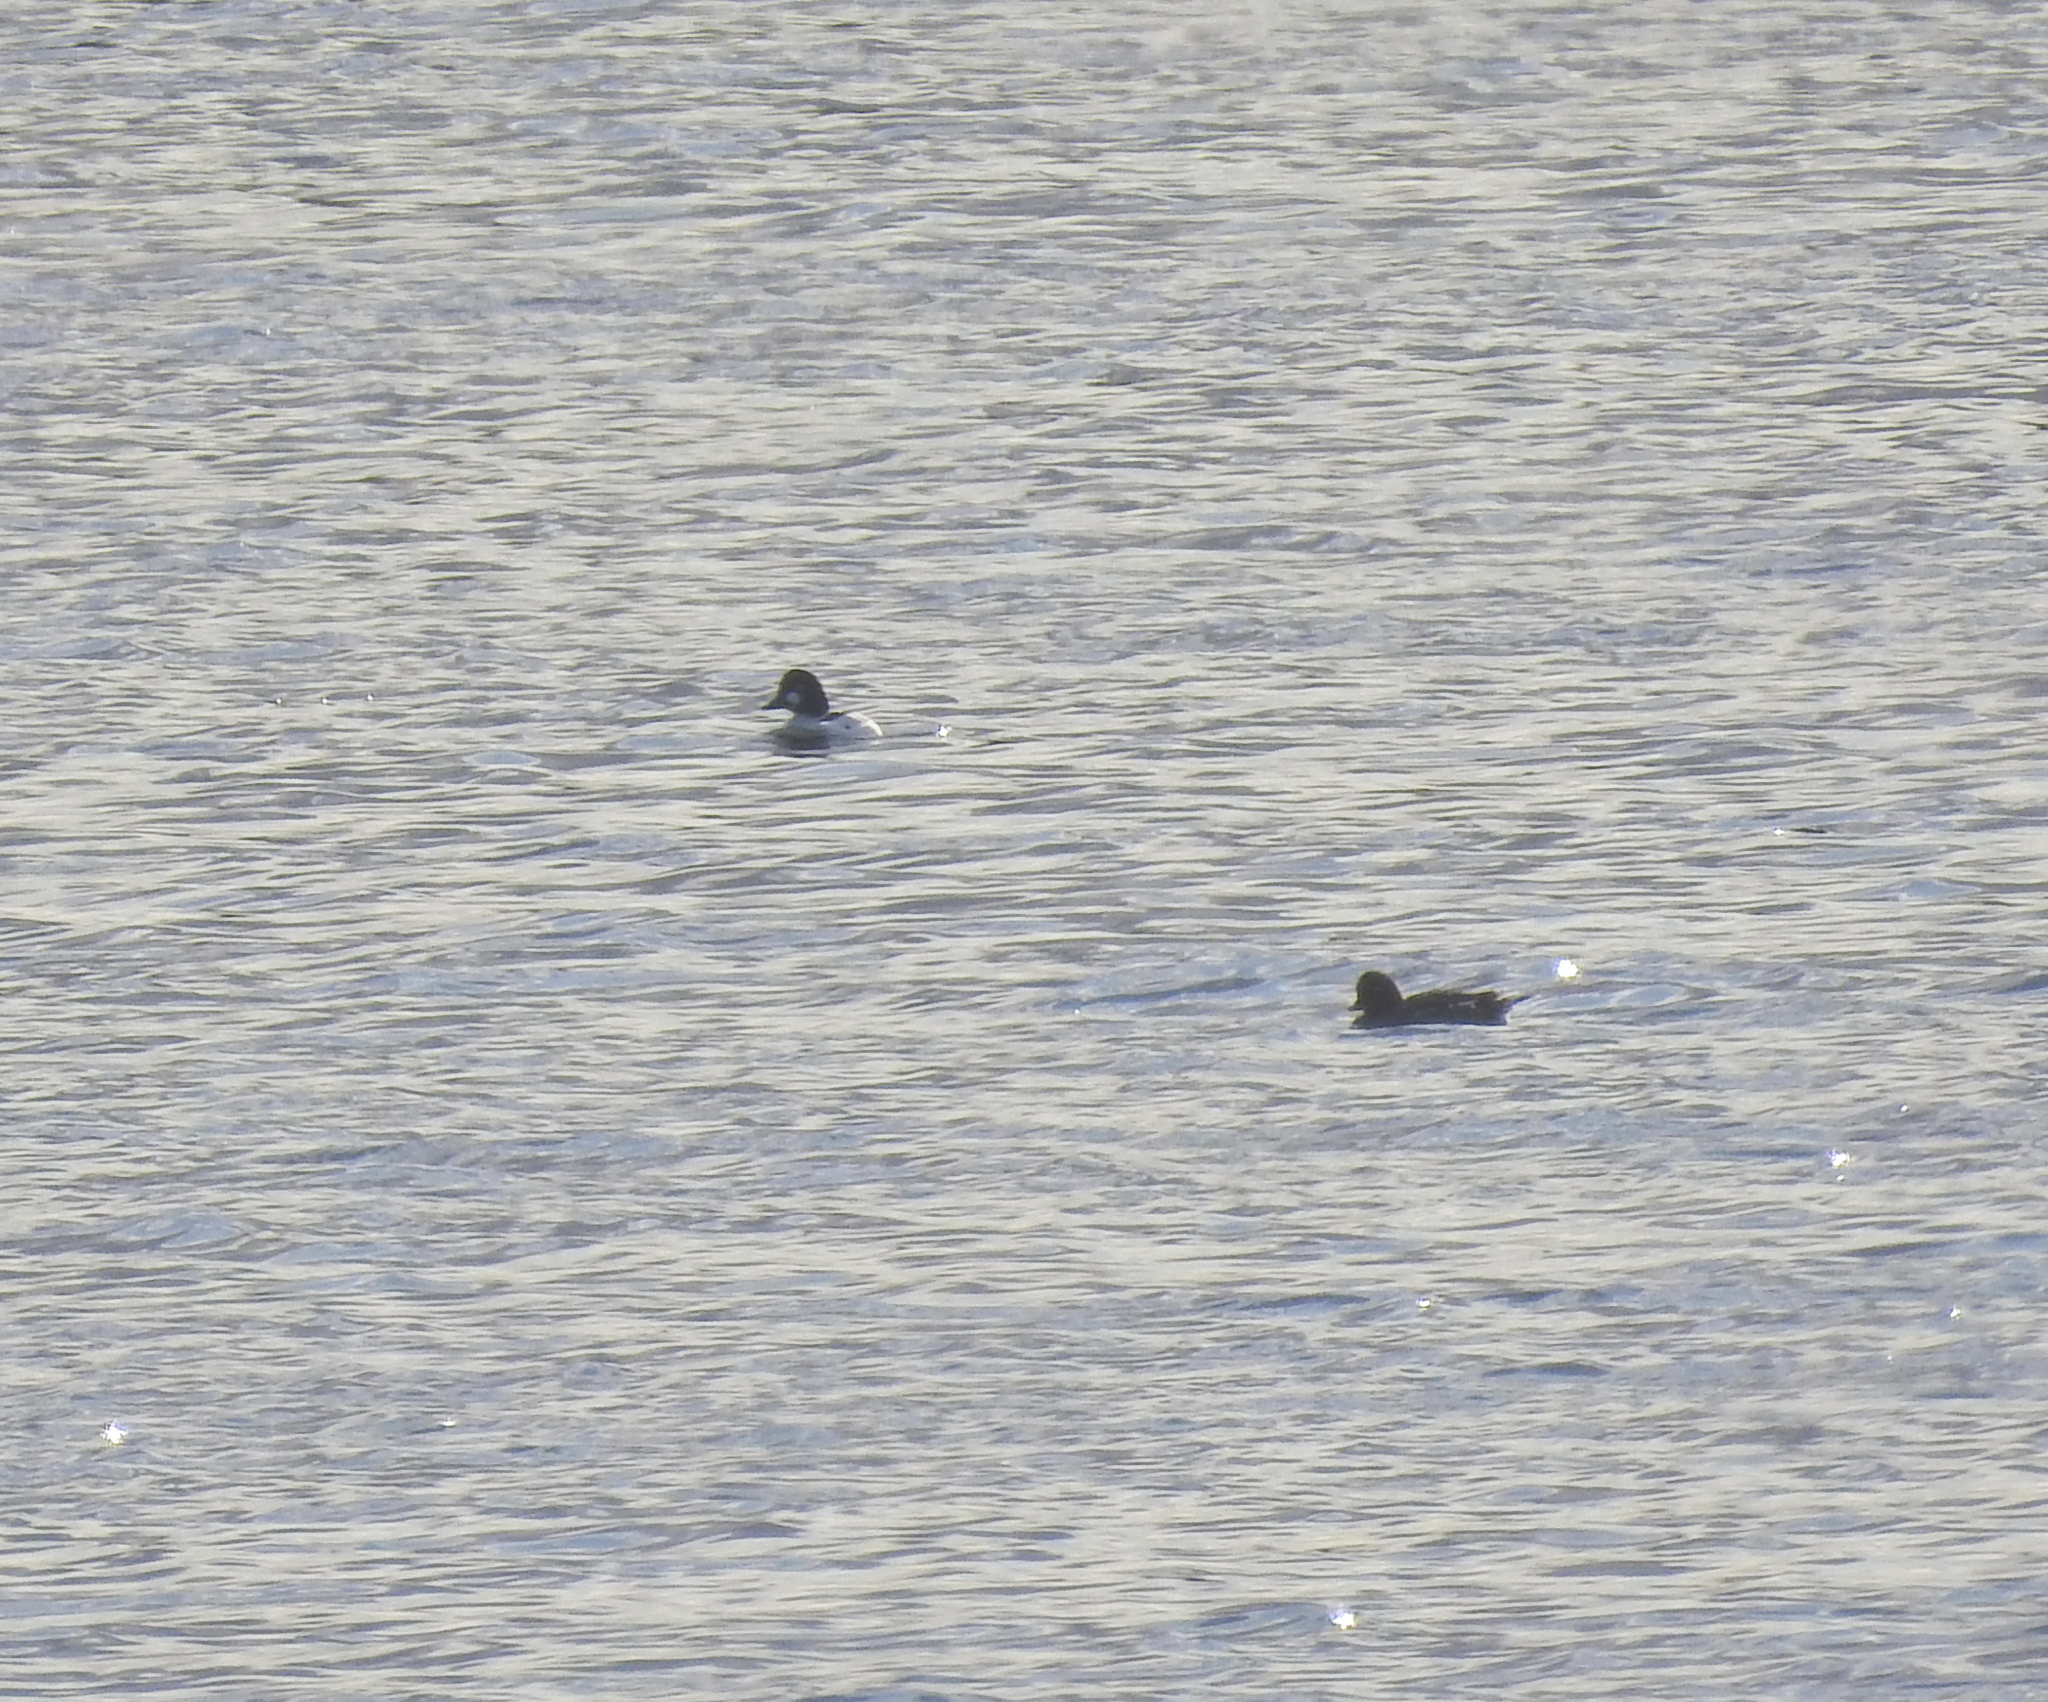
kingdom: Animalia
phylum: Chordata
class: Aves
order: Anseriformes
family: Anatidae
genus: Bucephala
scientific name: Bucephala clangula
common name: Common goldeneye
